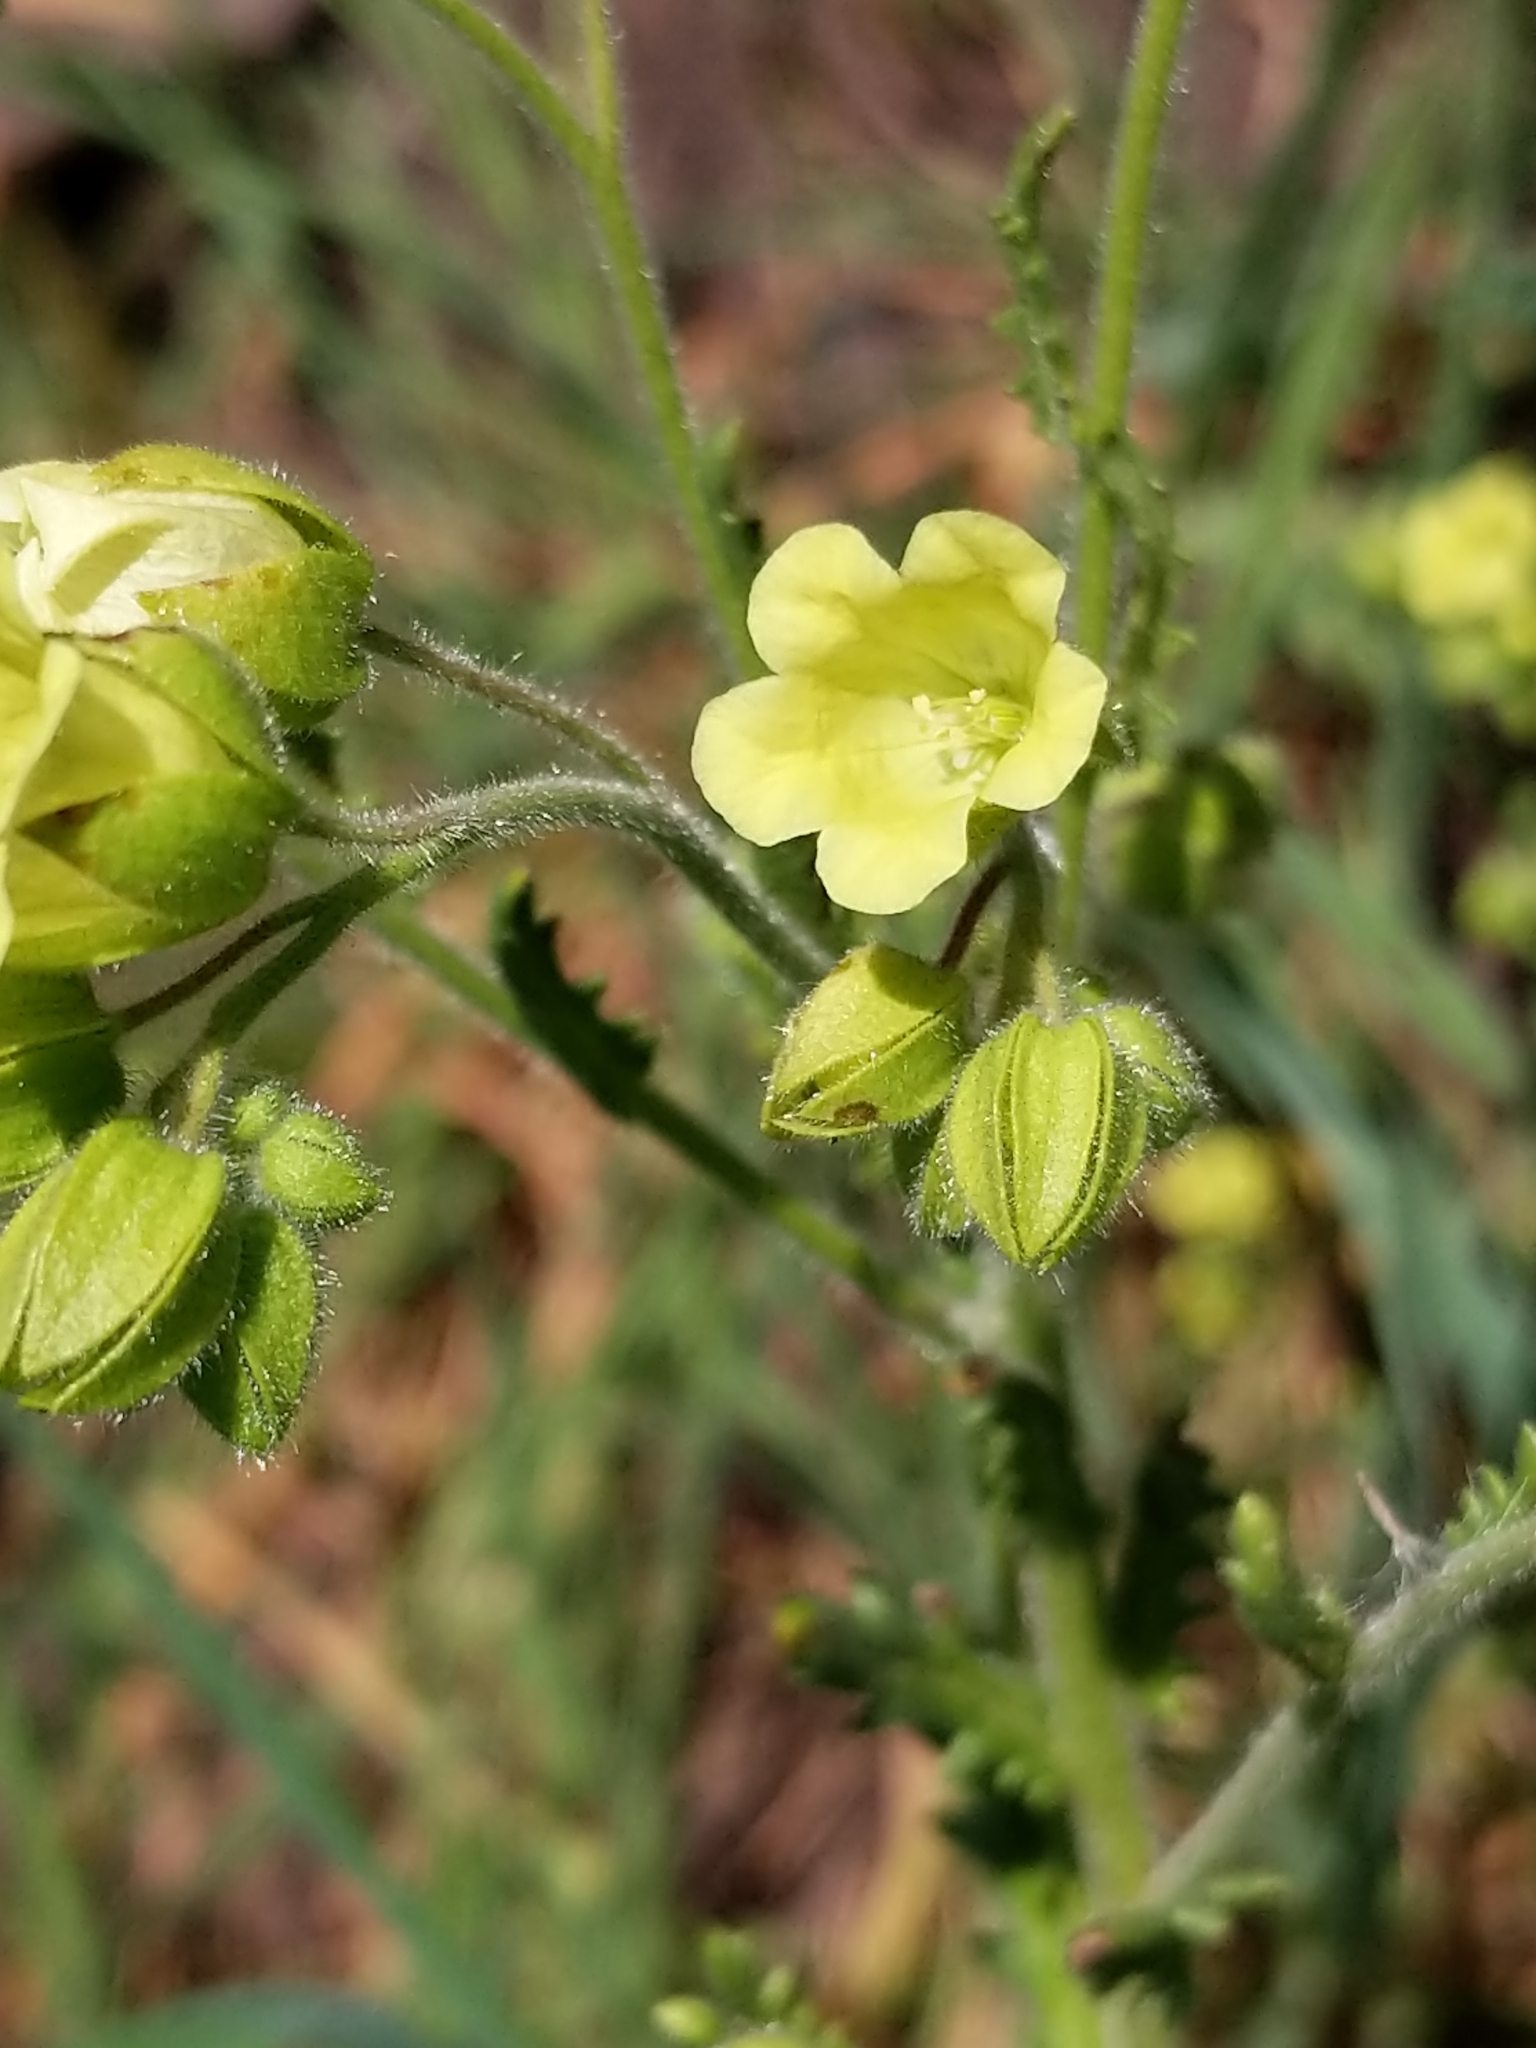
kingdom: Plantae
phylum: Tracheophyta
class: Magnoliopsida
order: Boraginales
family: Hydrophyllaceae
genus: Emmenanthe
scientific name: Emmenanthe penduliflora
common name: Whispering-bells
